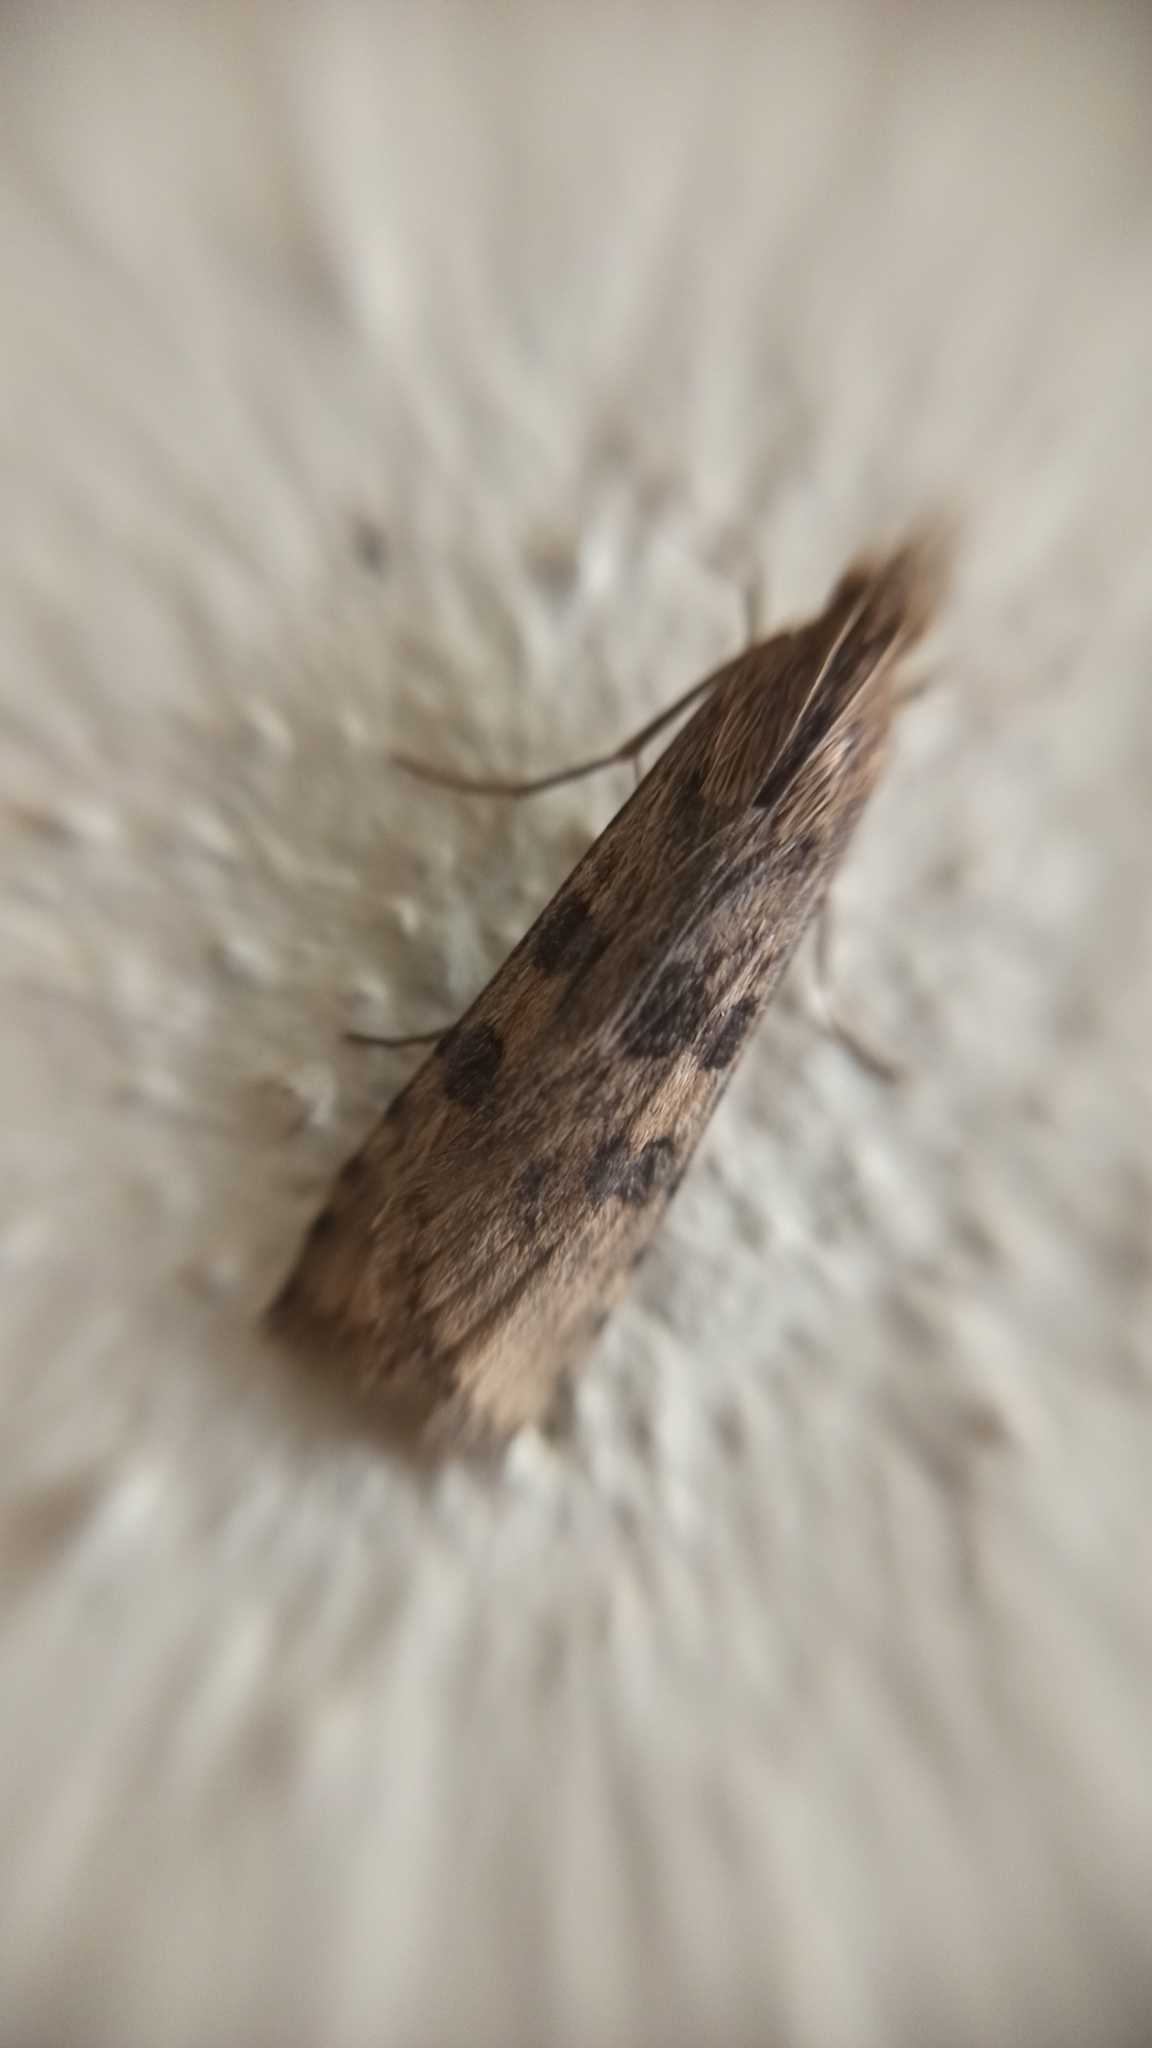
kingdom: Animalia
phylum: Arthropoda
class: Insecta
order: Lepidoptera
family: Crambidae
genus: Nomophila
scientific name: Nomophila noctuella
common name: Rush veneer
